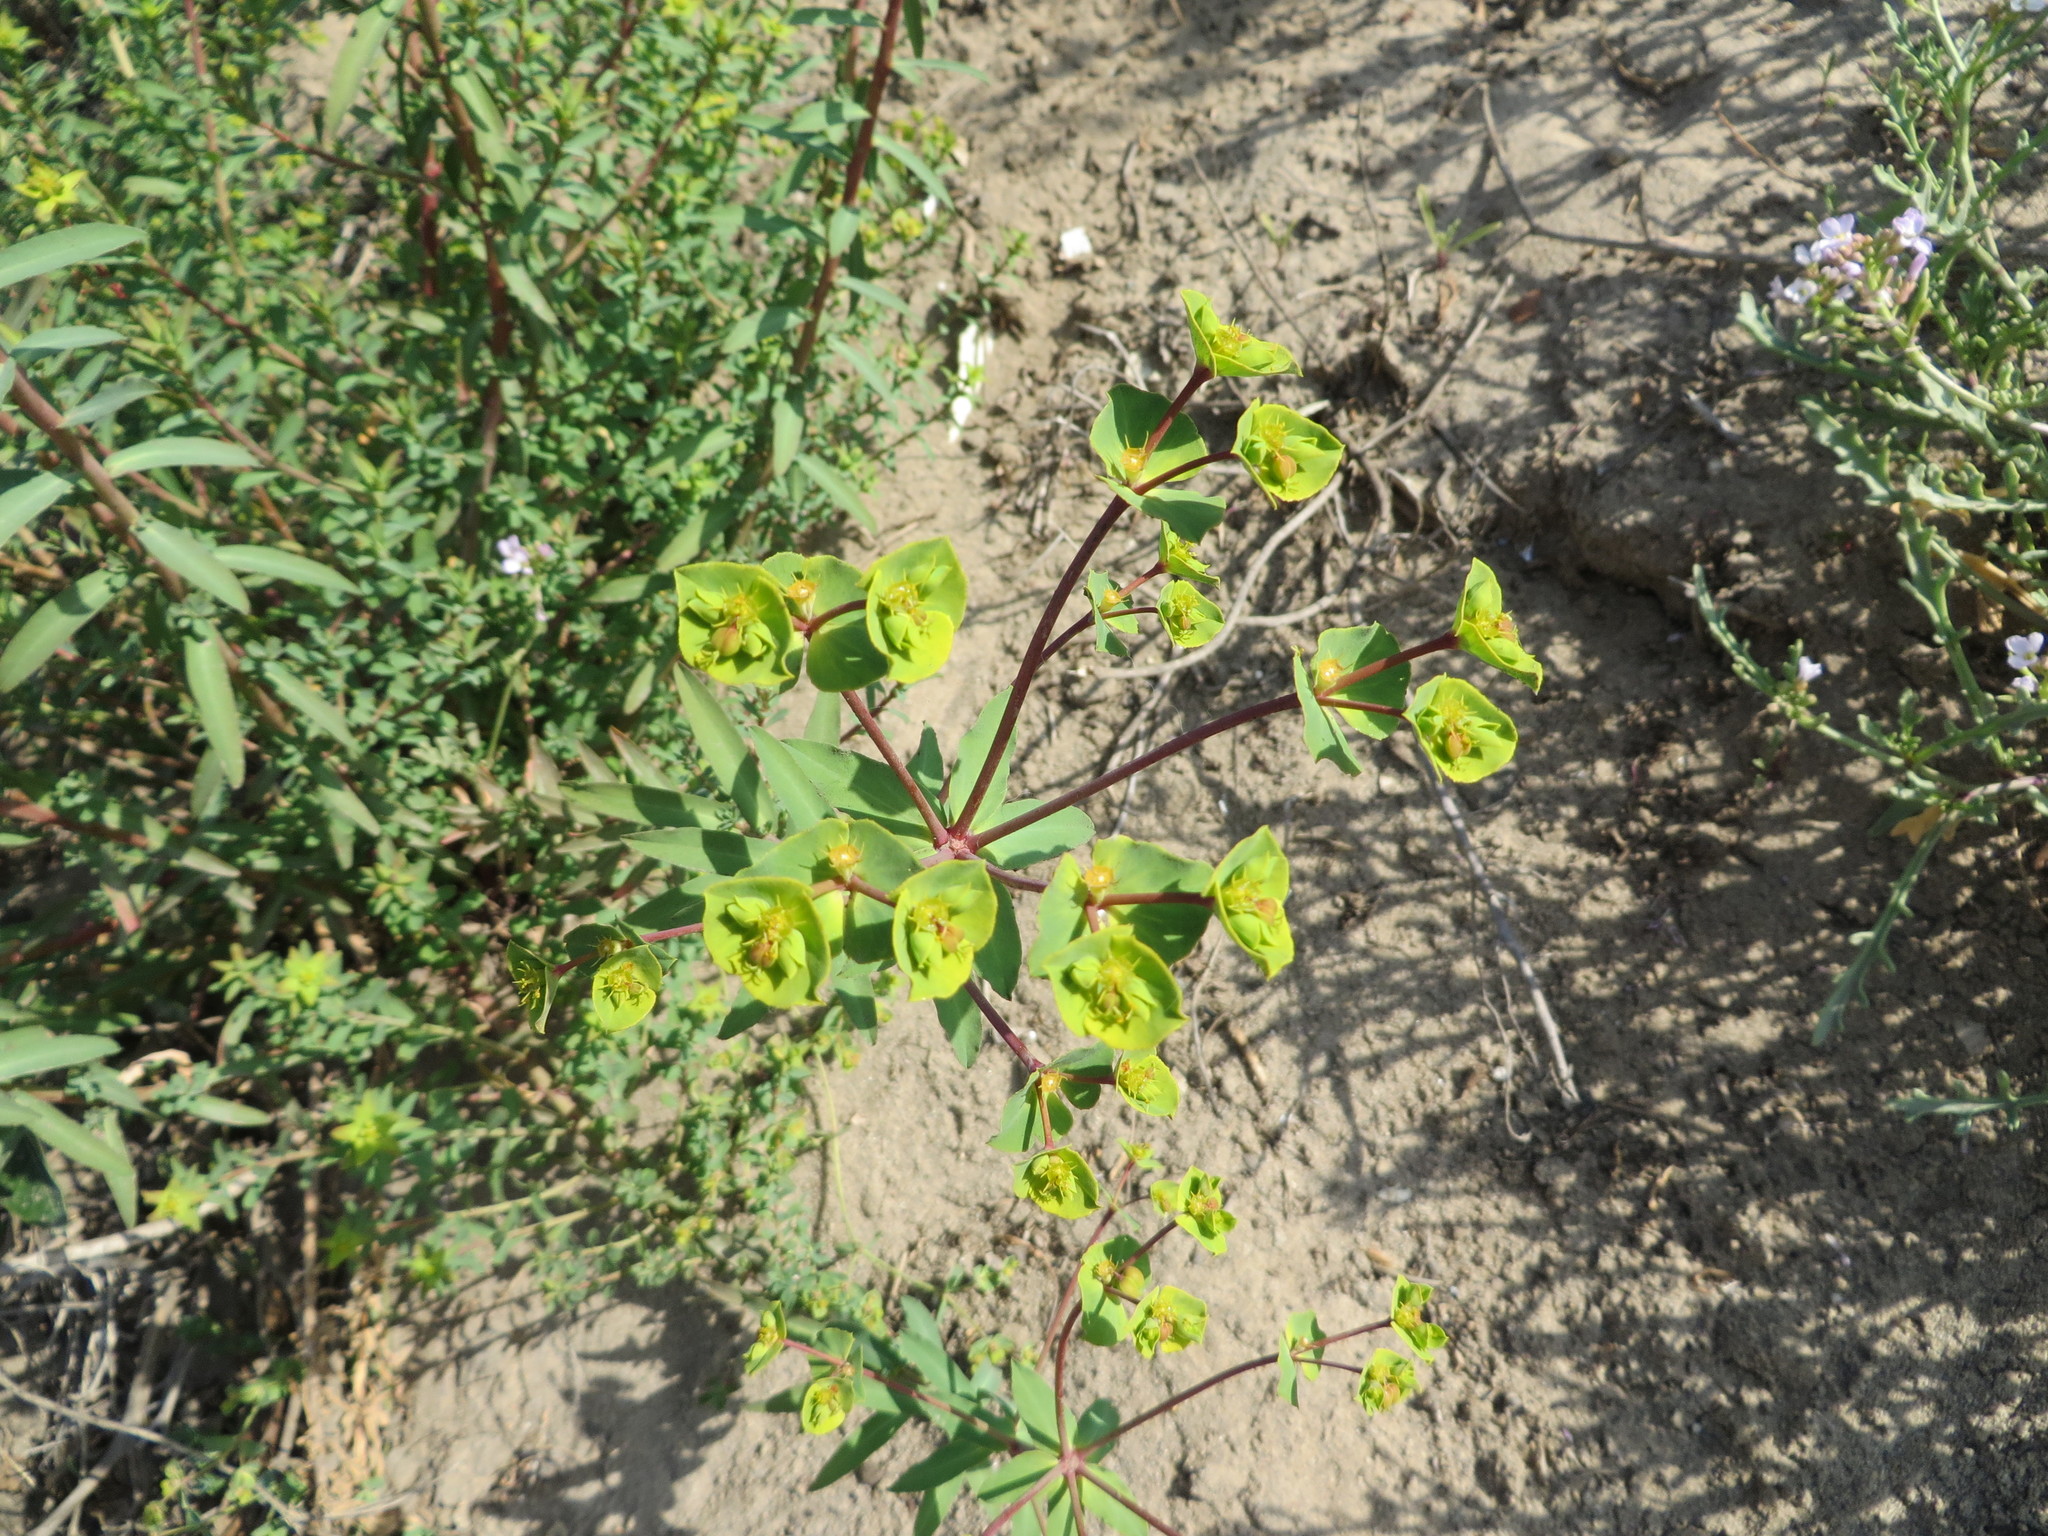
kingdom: Plantae
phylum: Tracheophyta
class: Magnoliopsida
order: Malpighiales
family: Euphorbiaceae
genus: Euphorbia
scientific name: Euphorbia terracina
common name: Geraldton carnation weed
